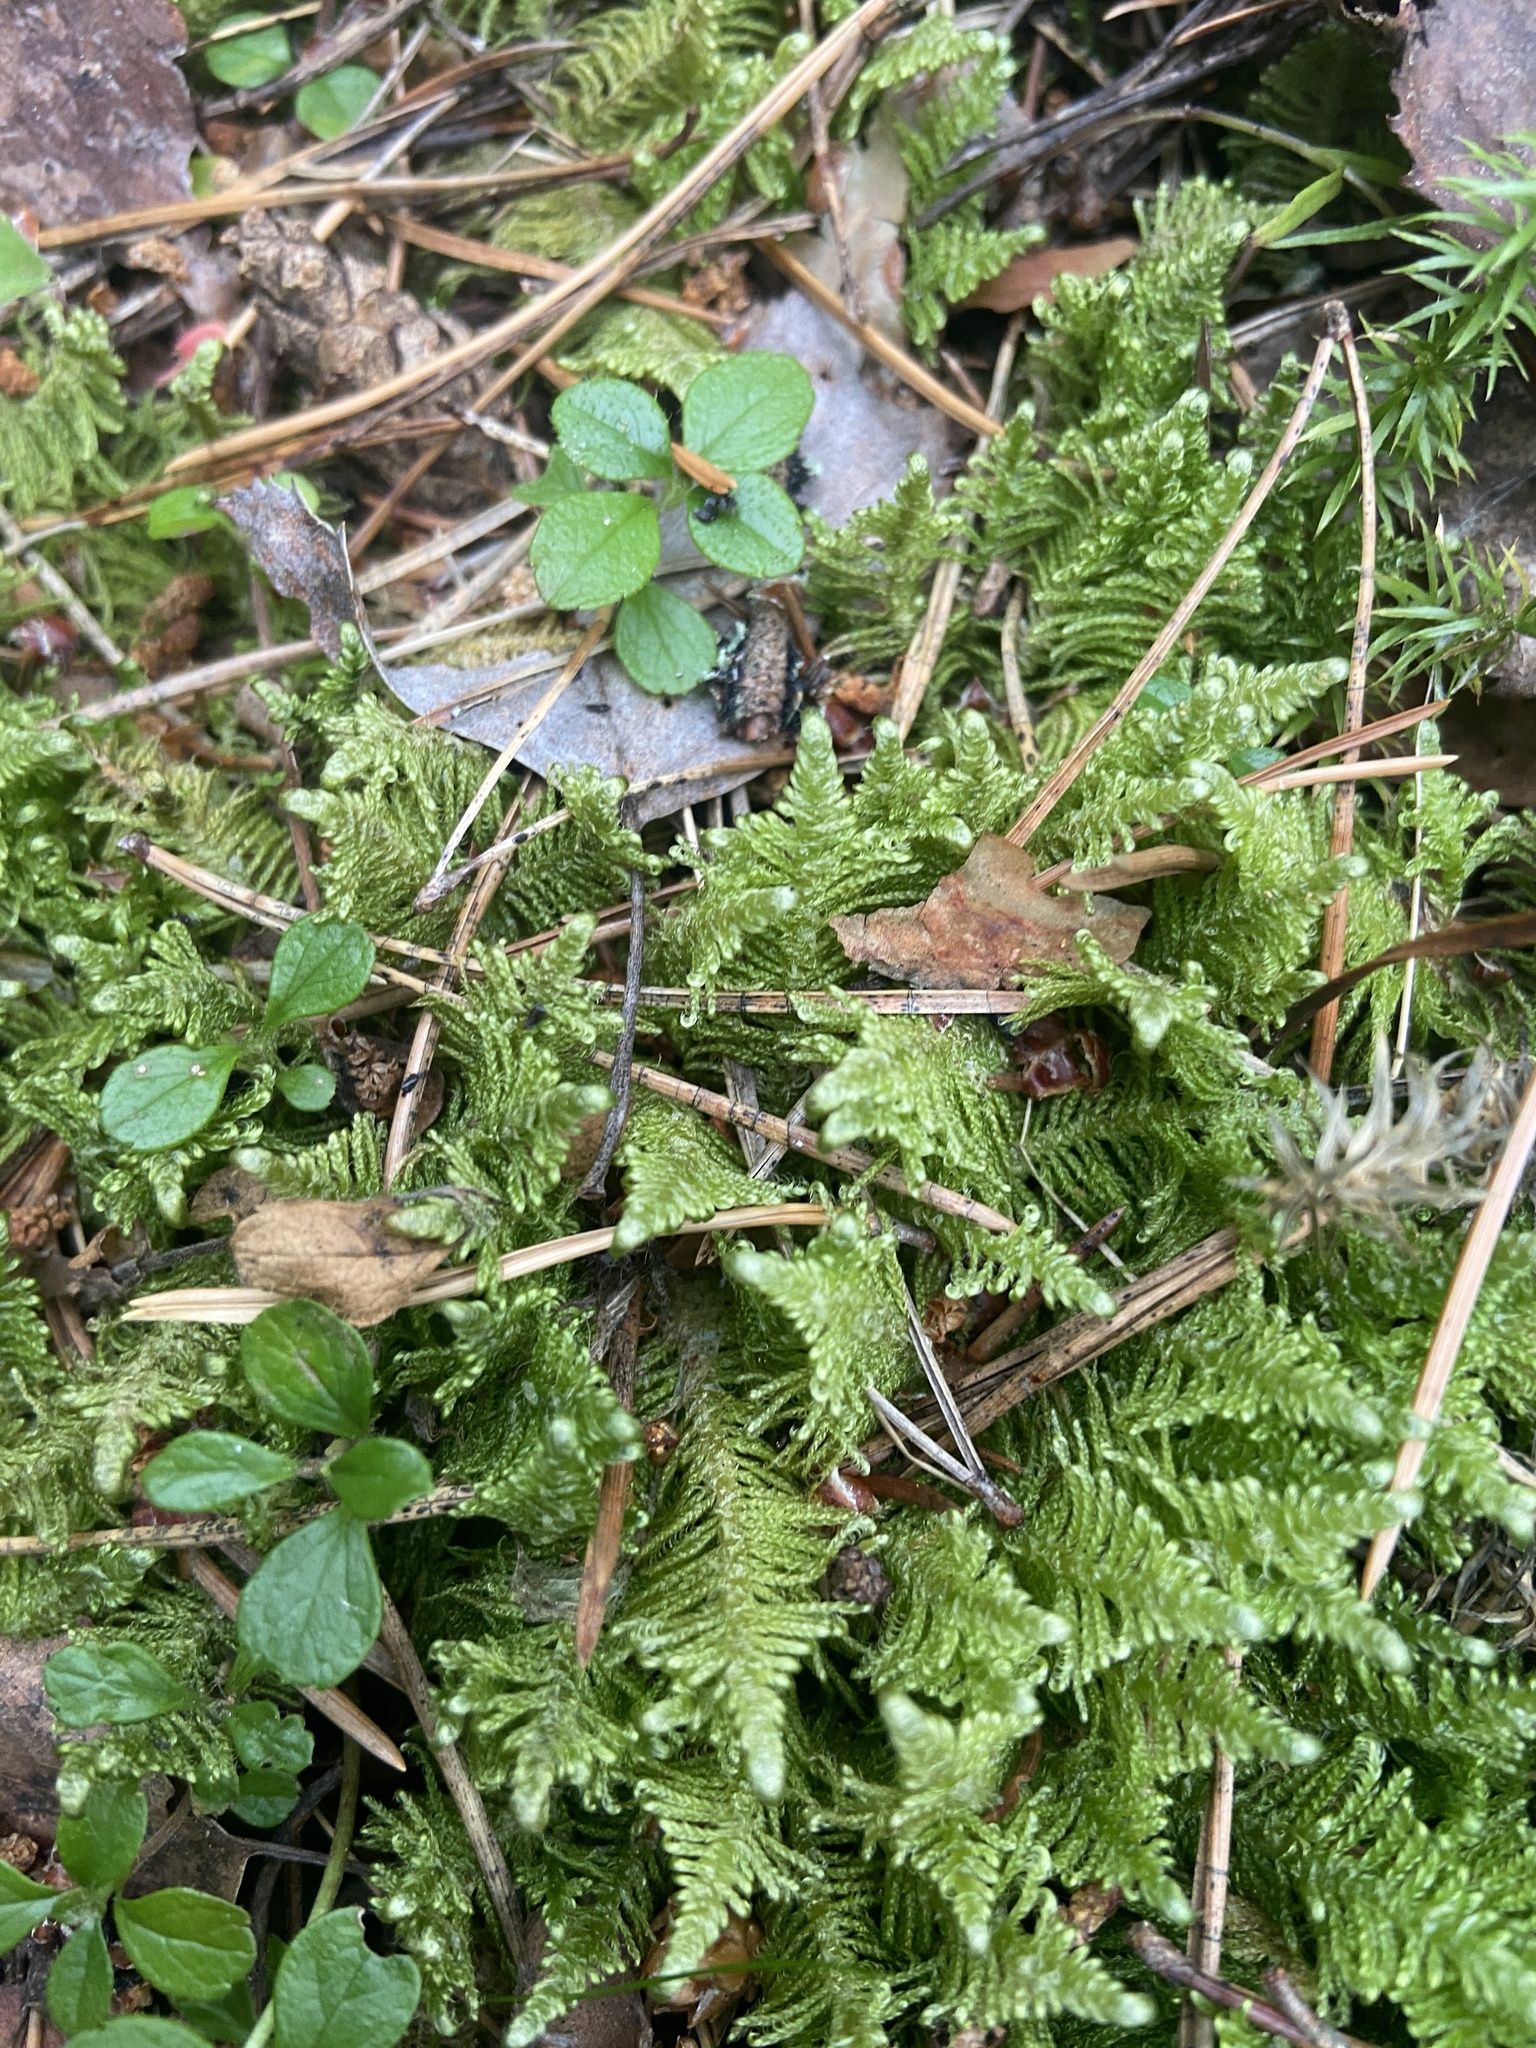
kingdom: Plantae
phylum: Bryophyta
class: Bryopsida
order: Hypnales
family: Pylaisiaceae
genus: Ptilium
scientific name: Ptilium crista-castrensis
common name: Knight's plume moss
